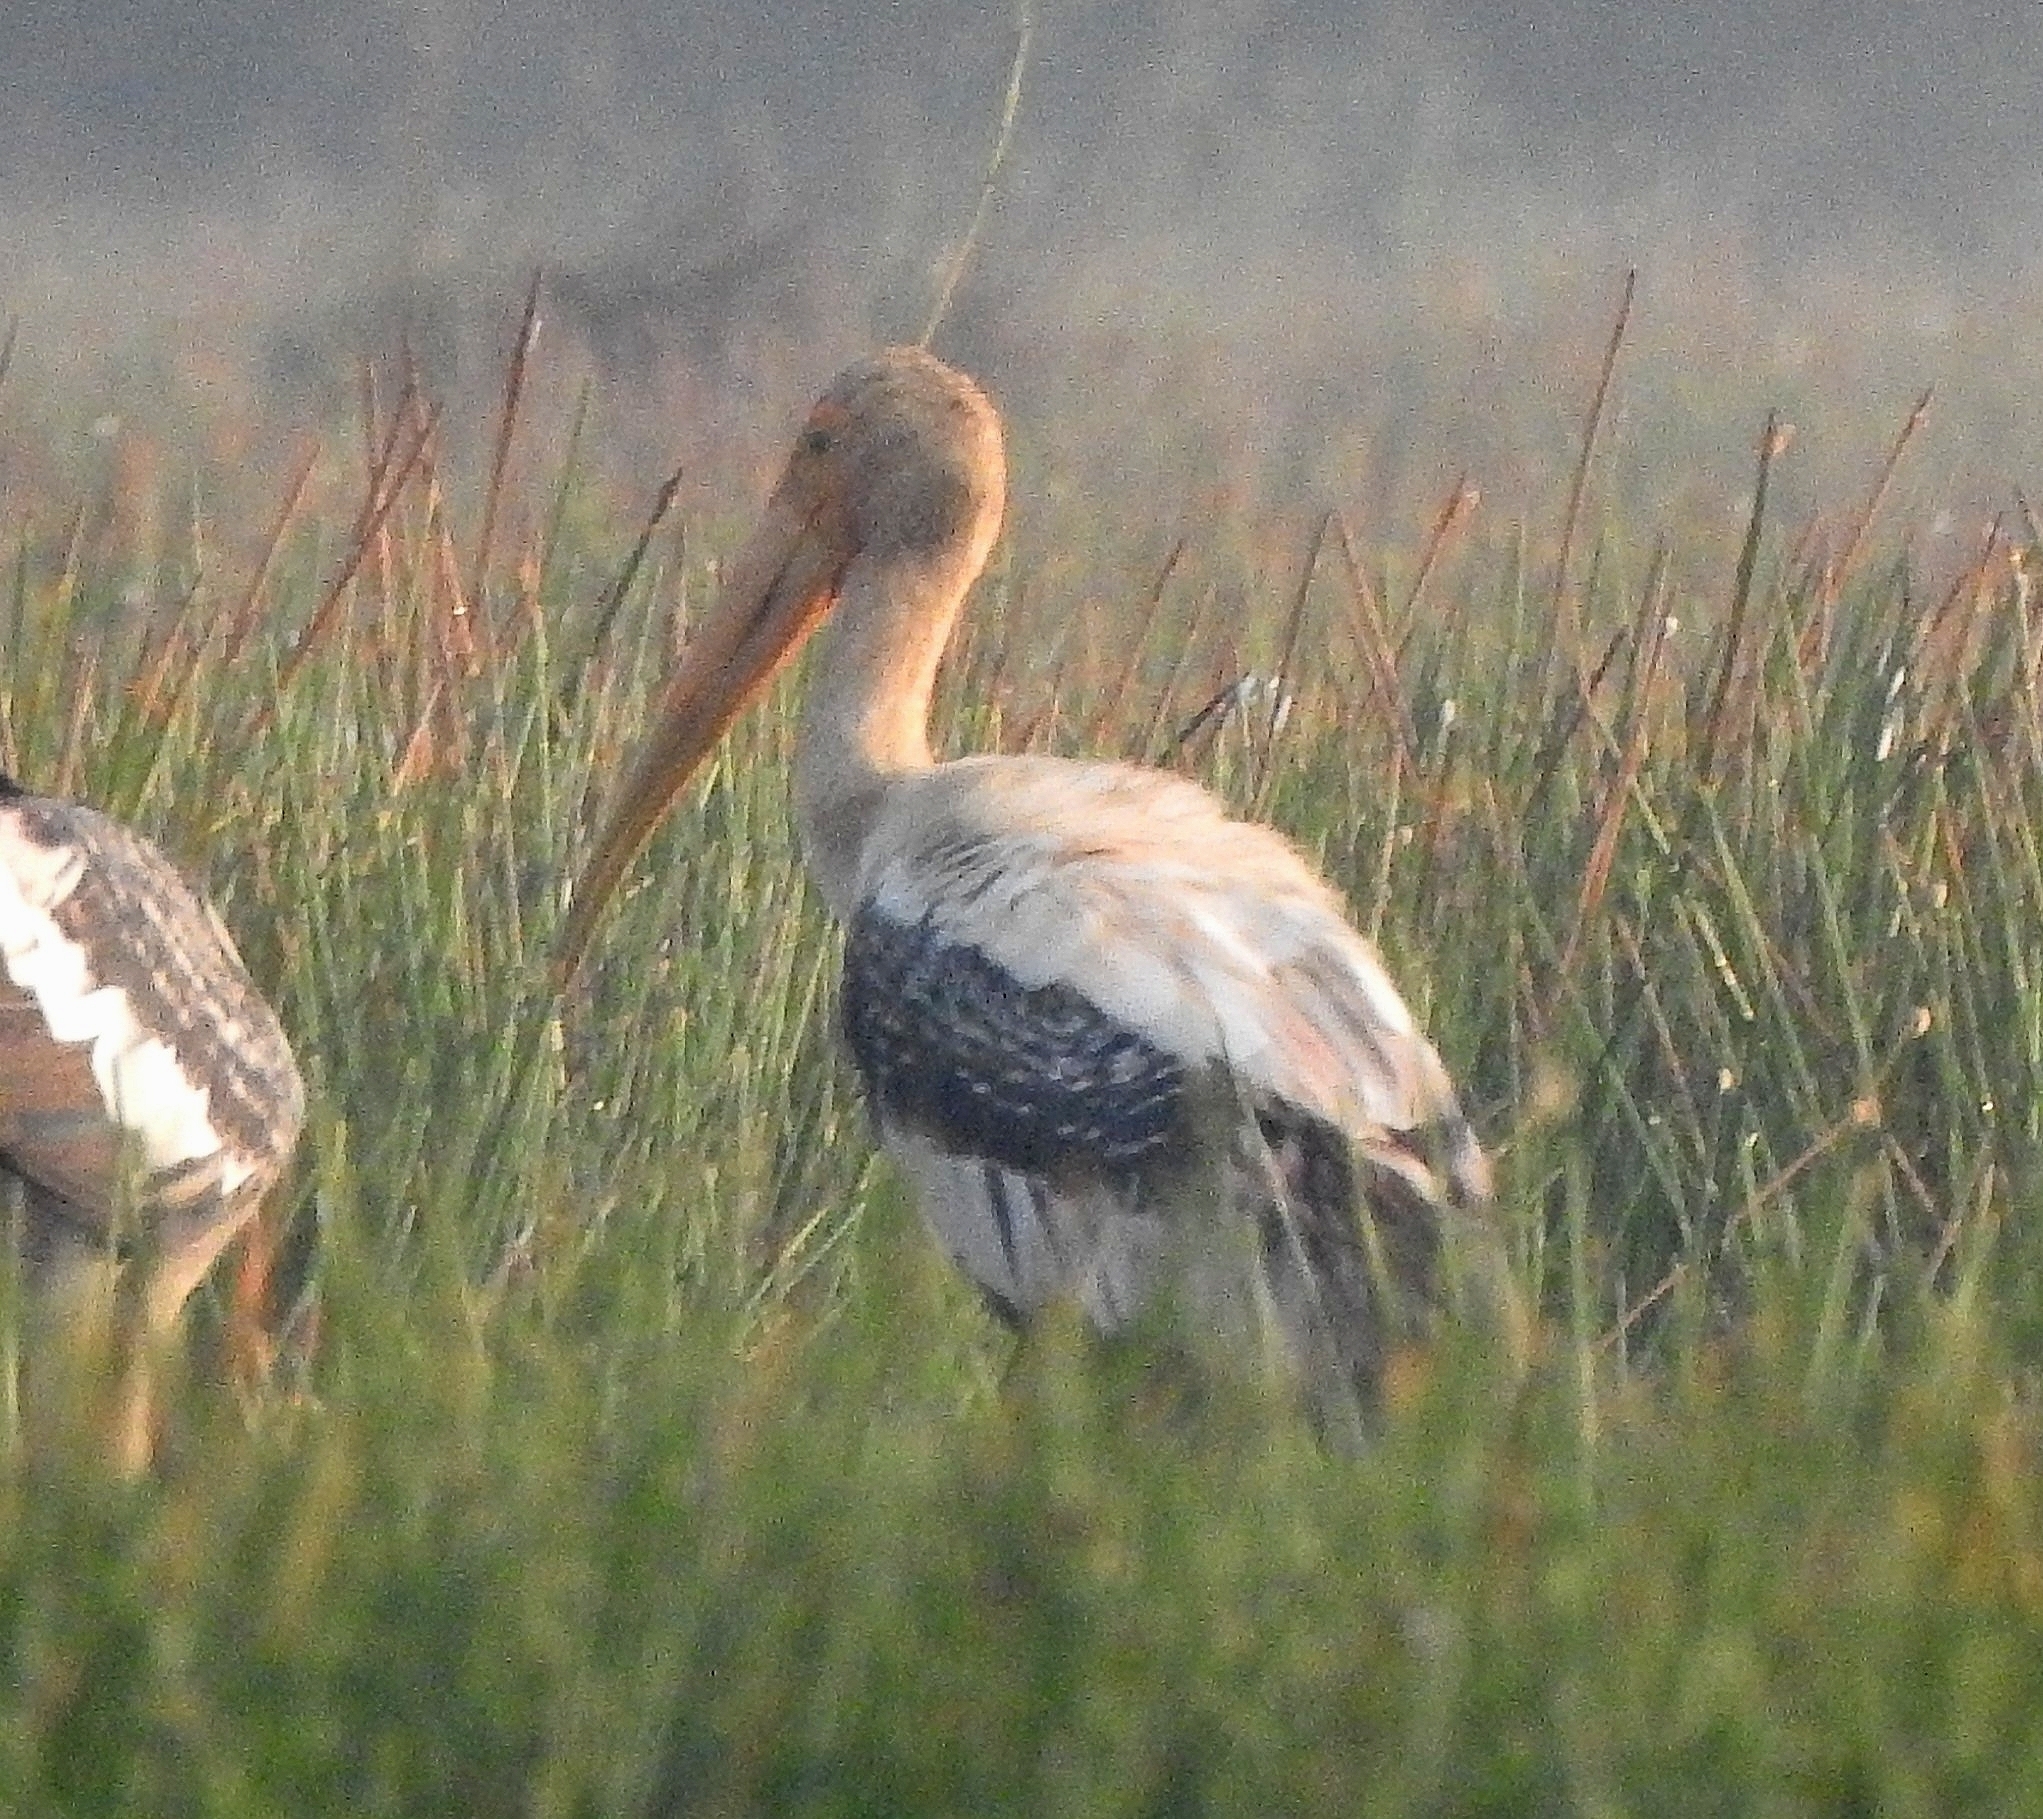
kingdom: Animalia
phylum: Chordata
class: Aves
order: Ciconiiformes
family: Ciconiidae
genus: Mycteria
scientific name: Mycteria leucocephala
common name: Painted stork
